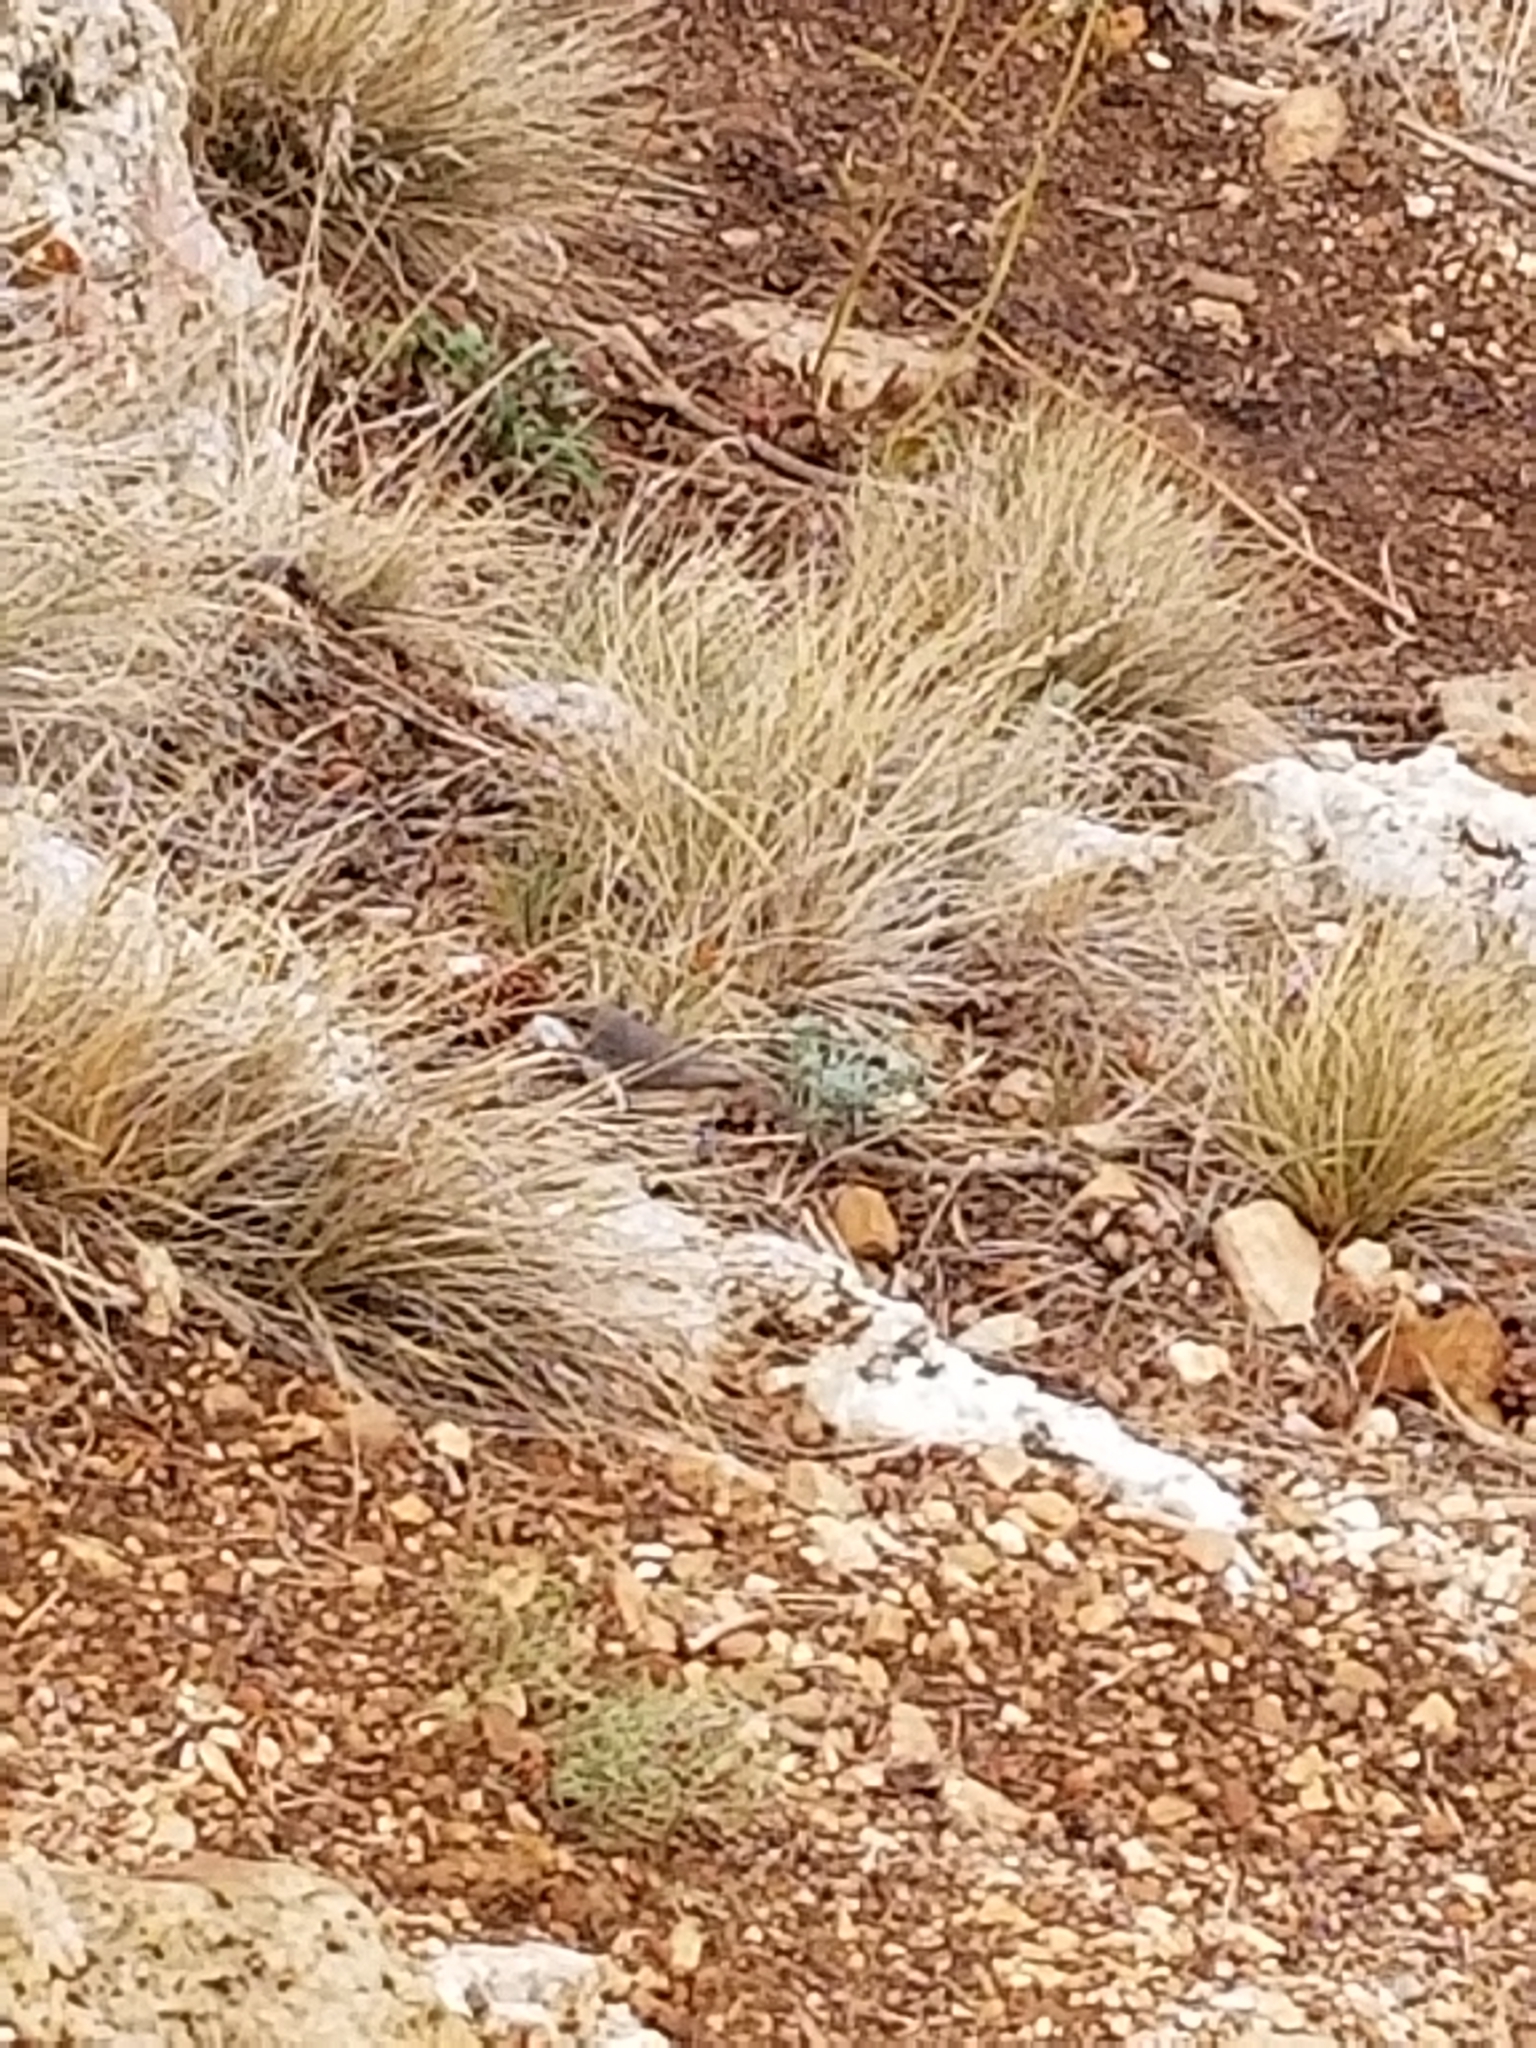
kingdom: Animalia
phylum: Chordata
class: Aves
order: Passeriformes
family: Troglodytidae
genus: Salpinctes
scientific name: Salpinctes obsoletus
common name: Rock wren
